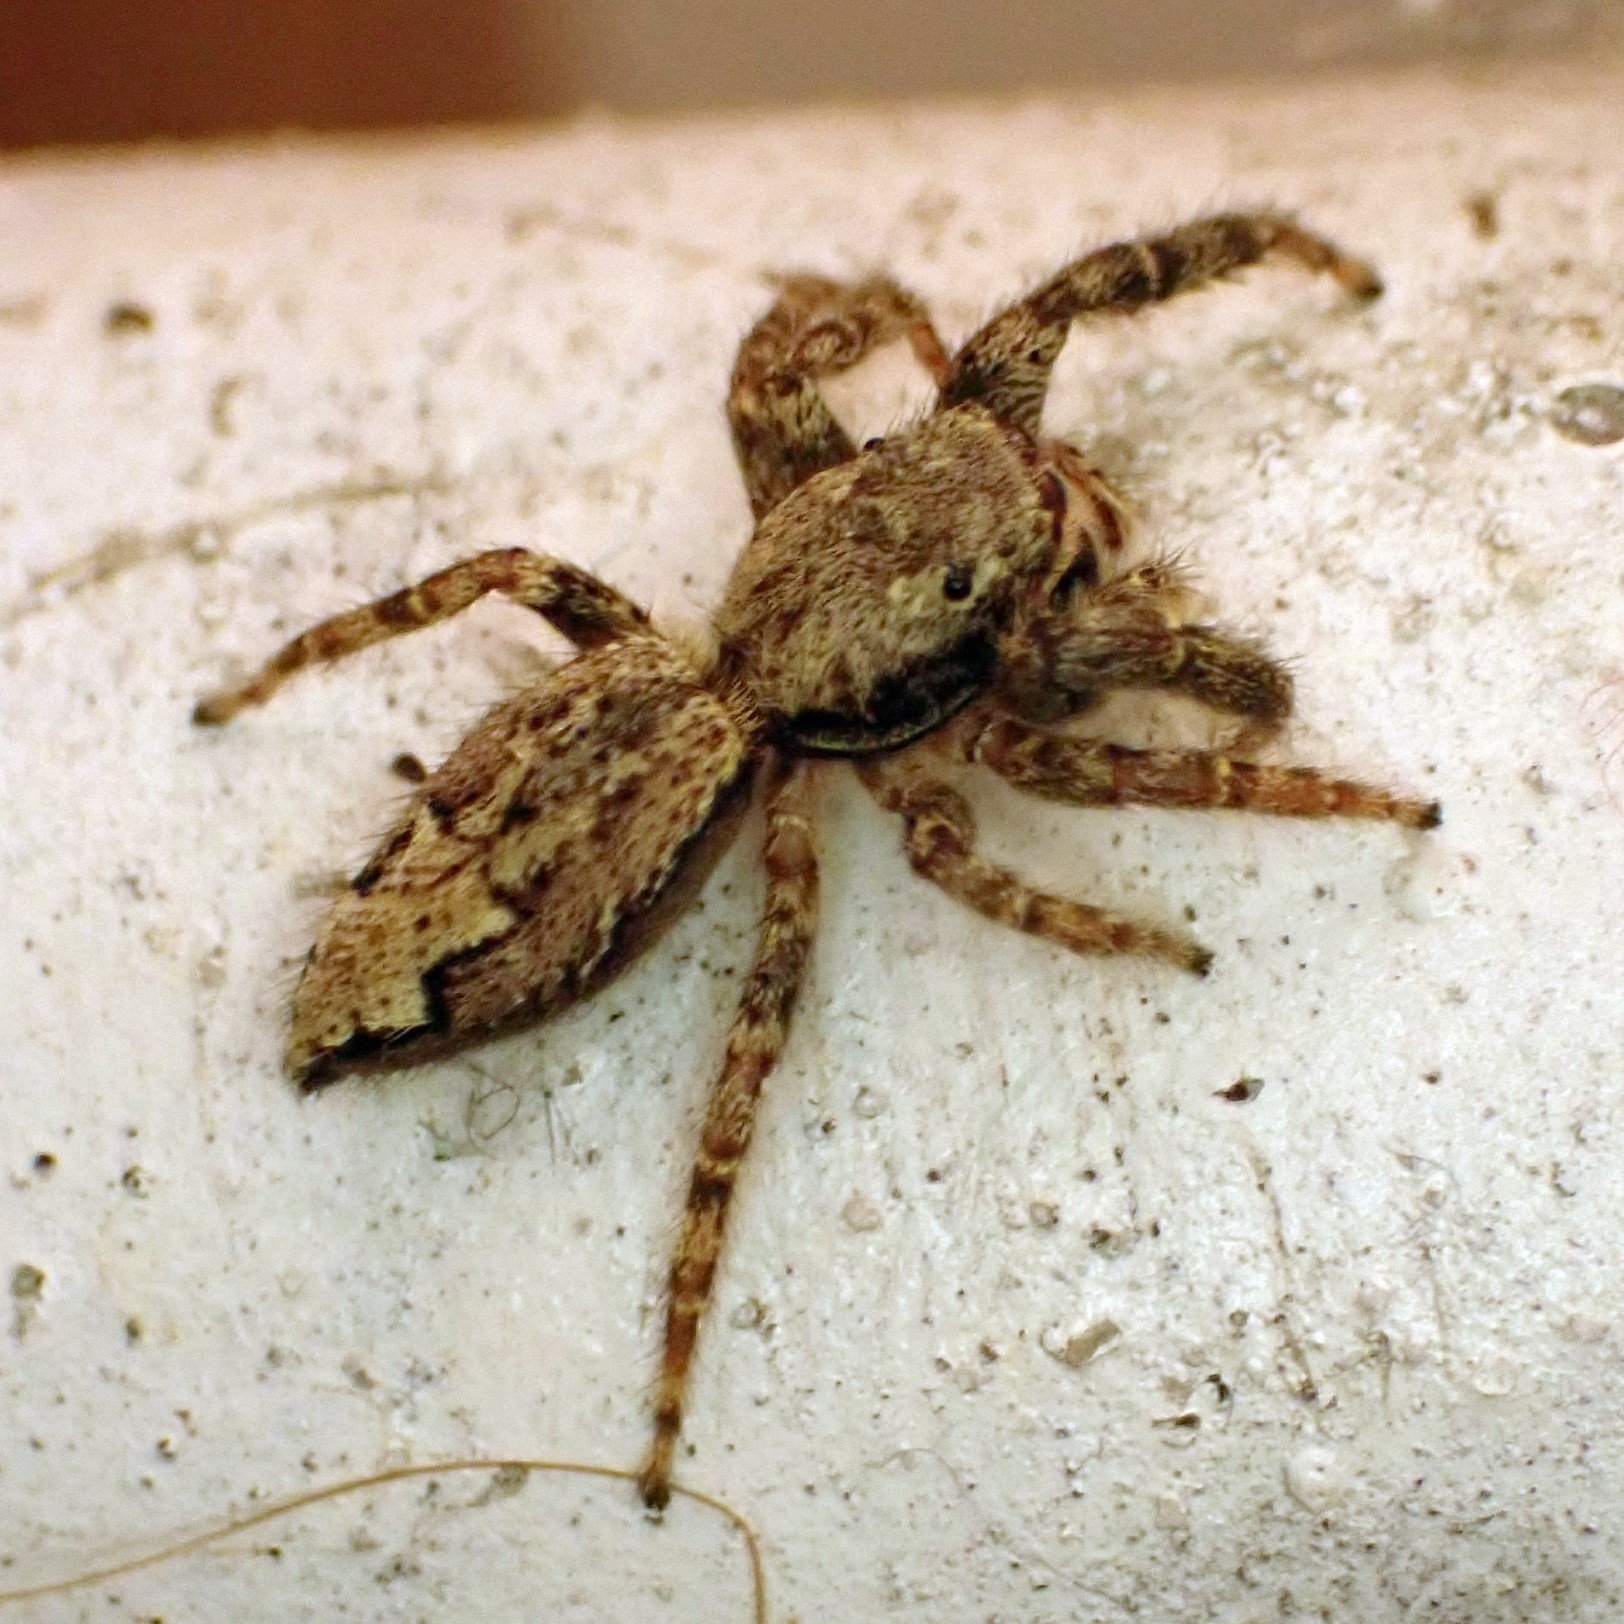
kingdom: Animalia
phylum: Arthropoda
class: Arachnida
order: Araneae
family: Salticidae
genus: Marpissa
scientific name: Marpissa muscosa
